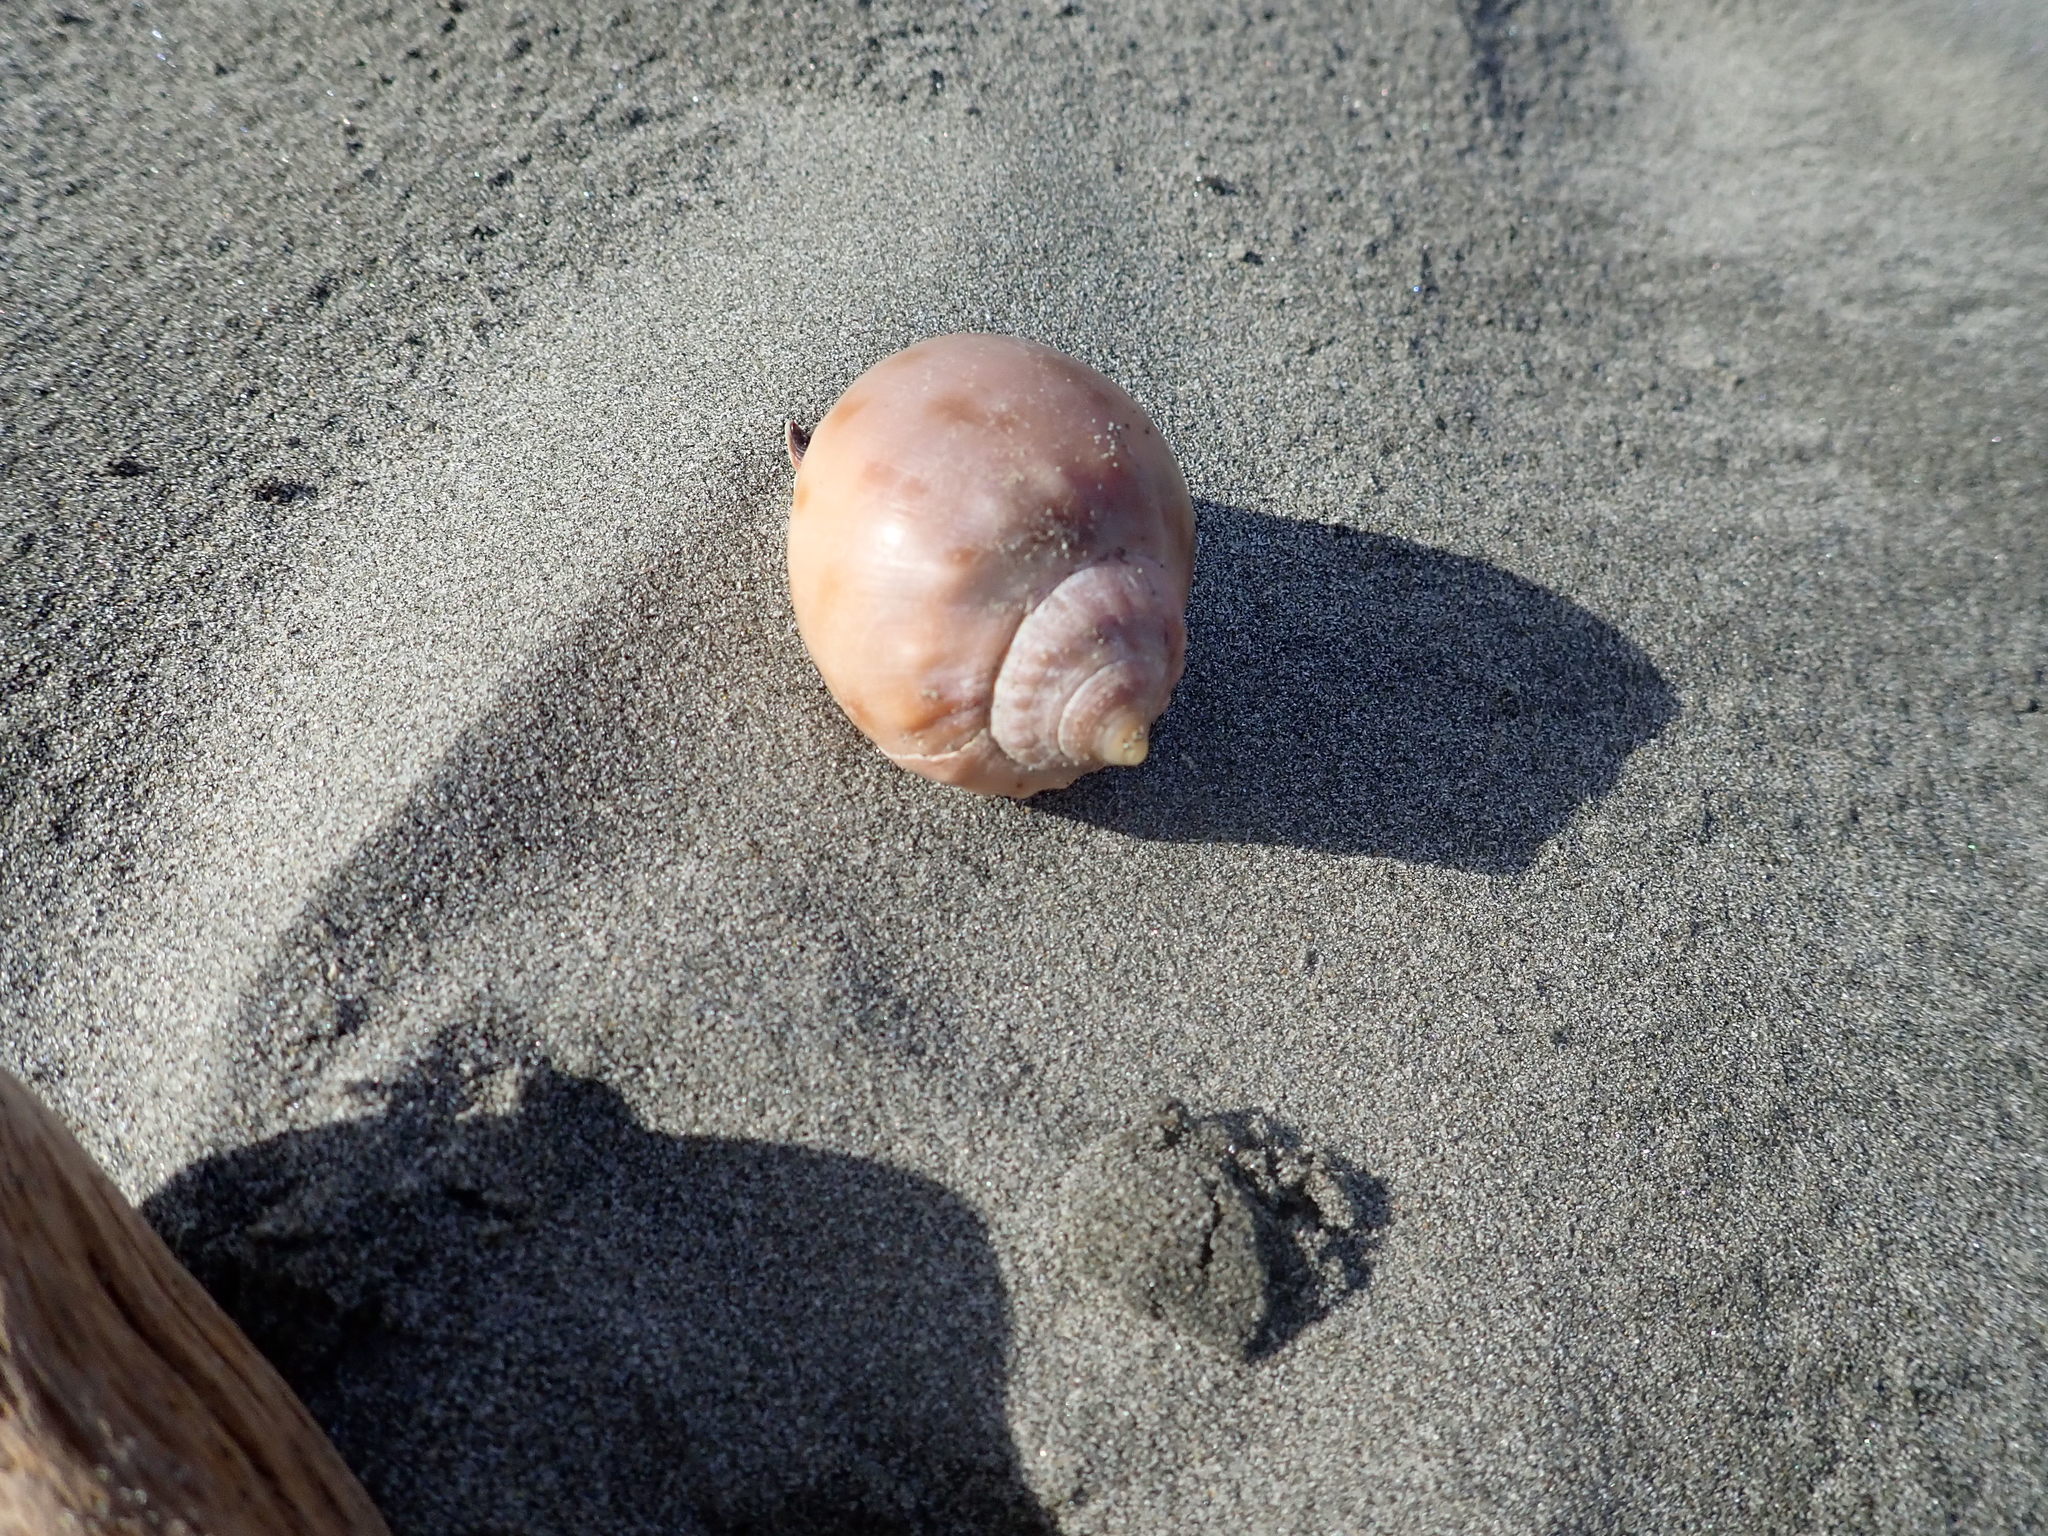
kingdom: Animalia
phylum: Mollusca
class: Gastropoda
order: Littorinimorpha
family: Cassidae
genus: Semicassis
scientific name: Semicassis pyrum
